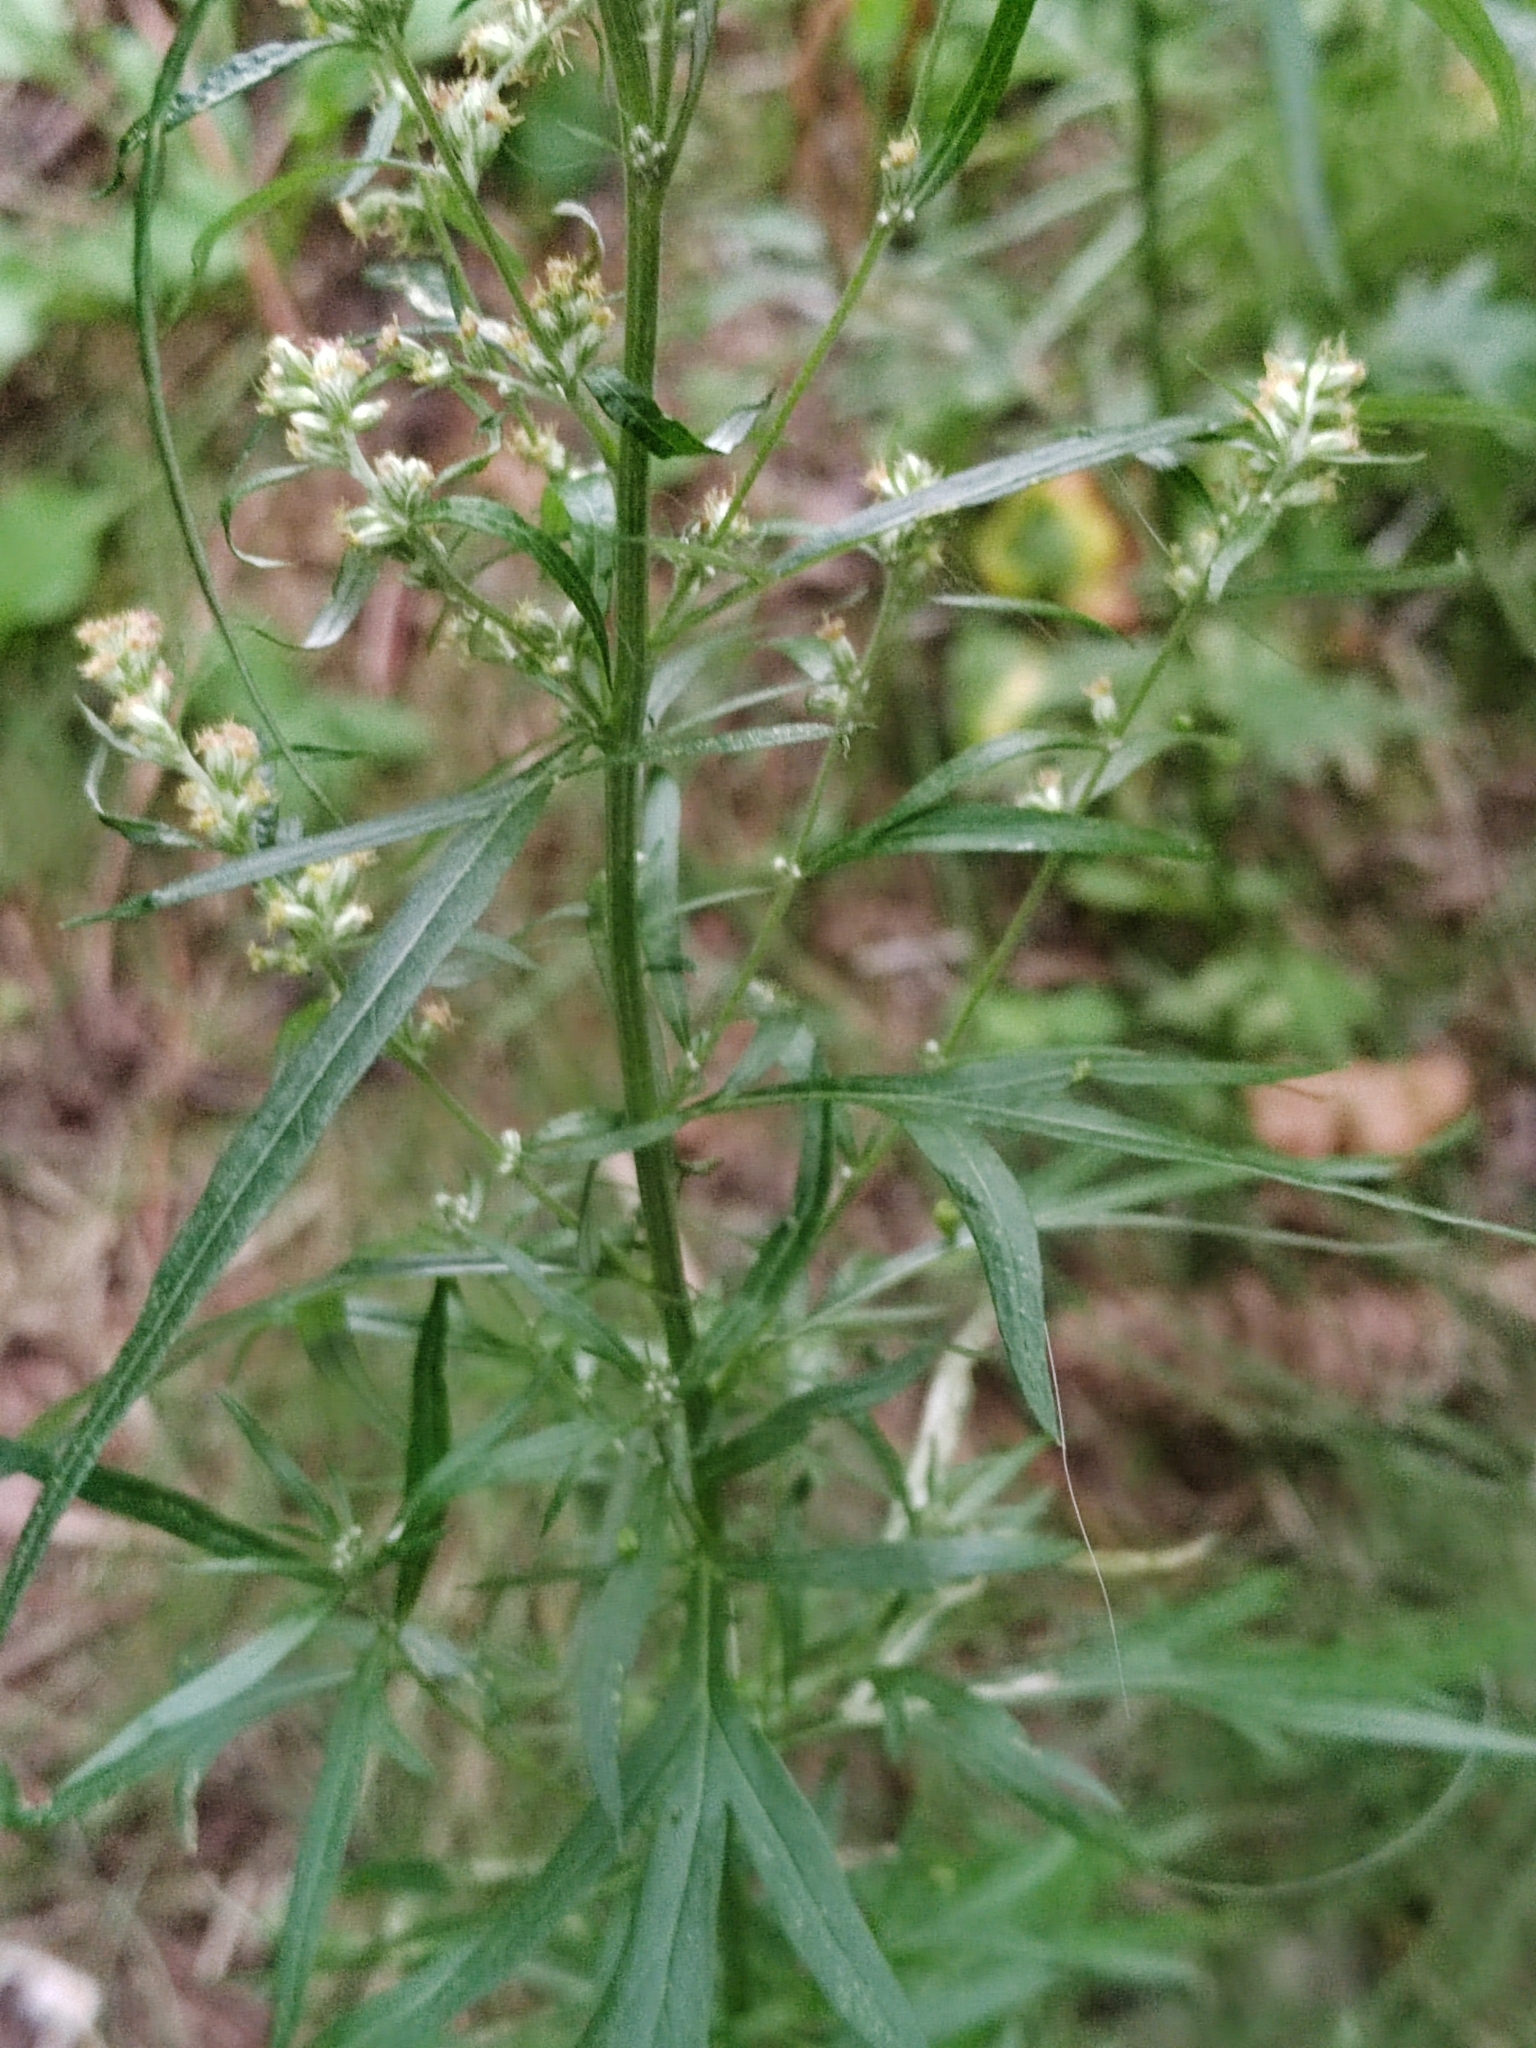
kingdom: Plantae
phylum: Tracheophyta
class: Magnoliopsida
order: Asterales
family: Asteraceae
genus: Artemisia
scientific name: Artemisia vulgaris
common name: Mugwort
